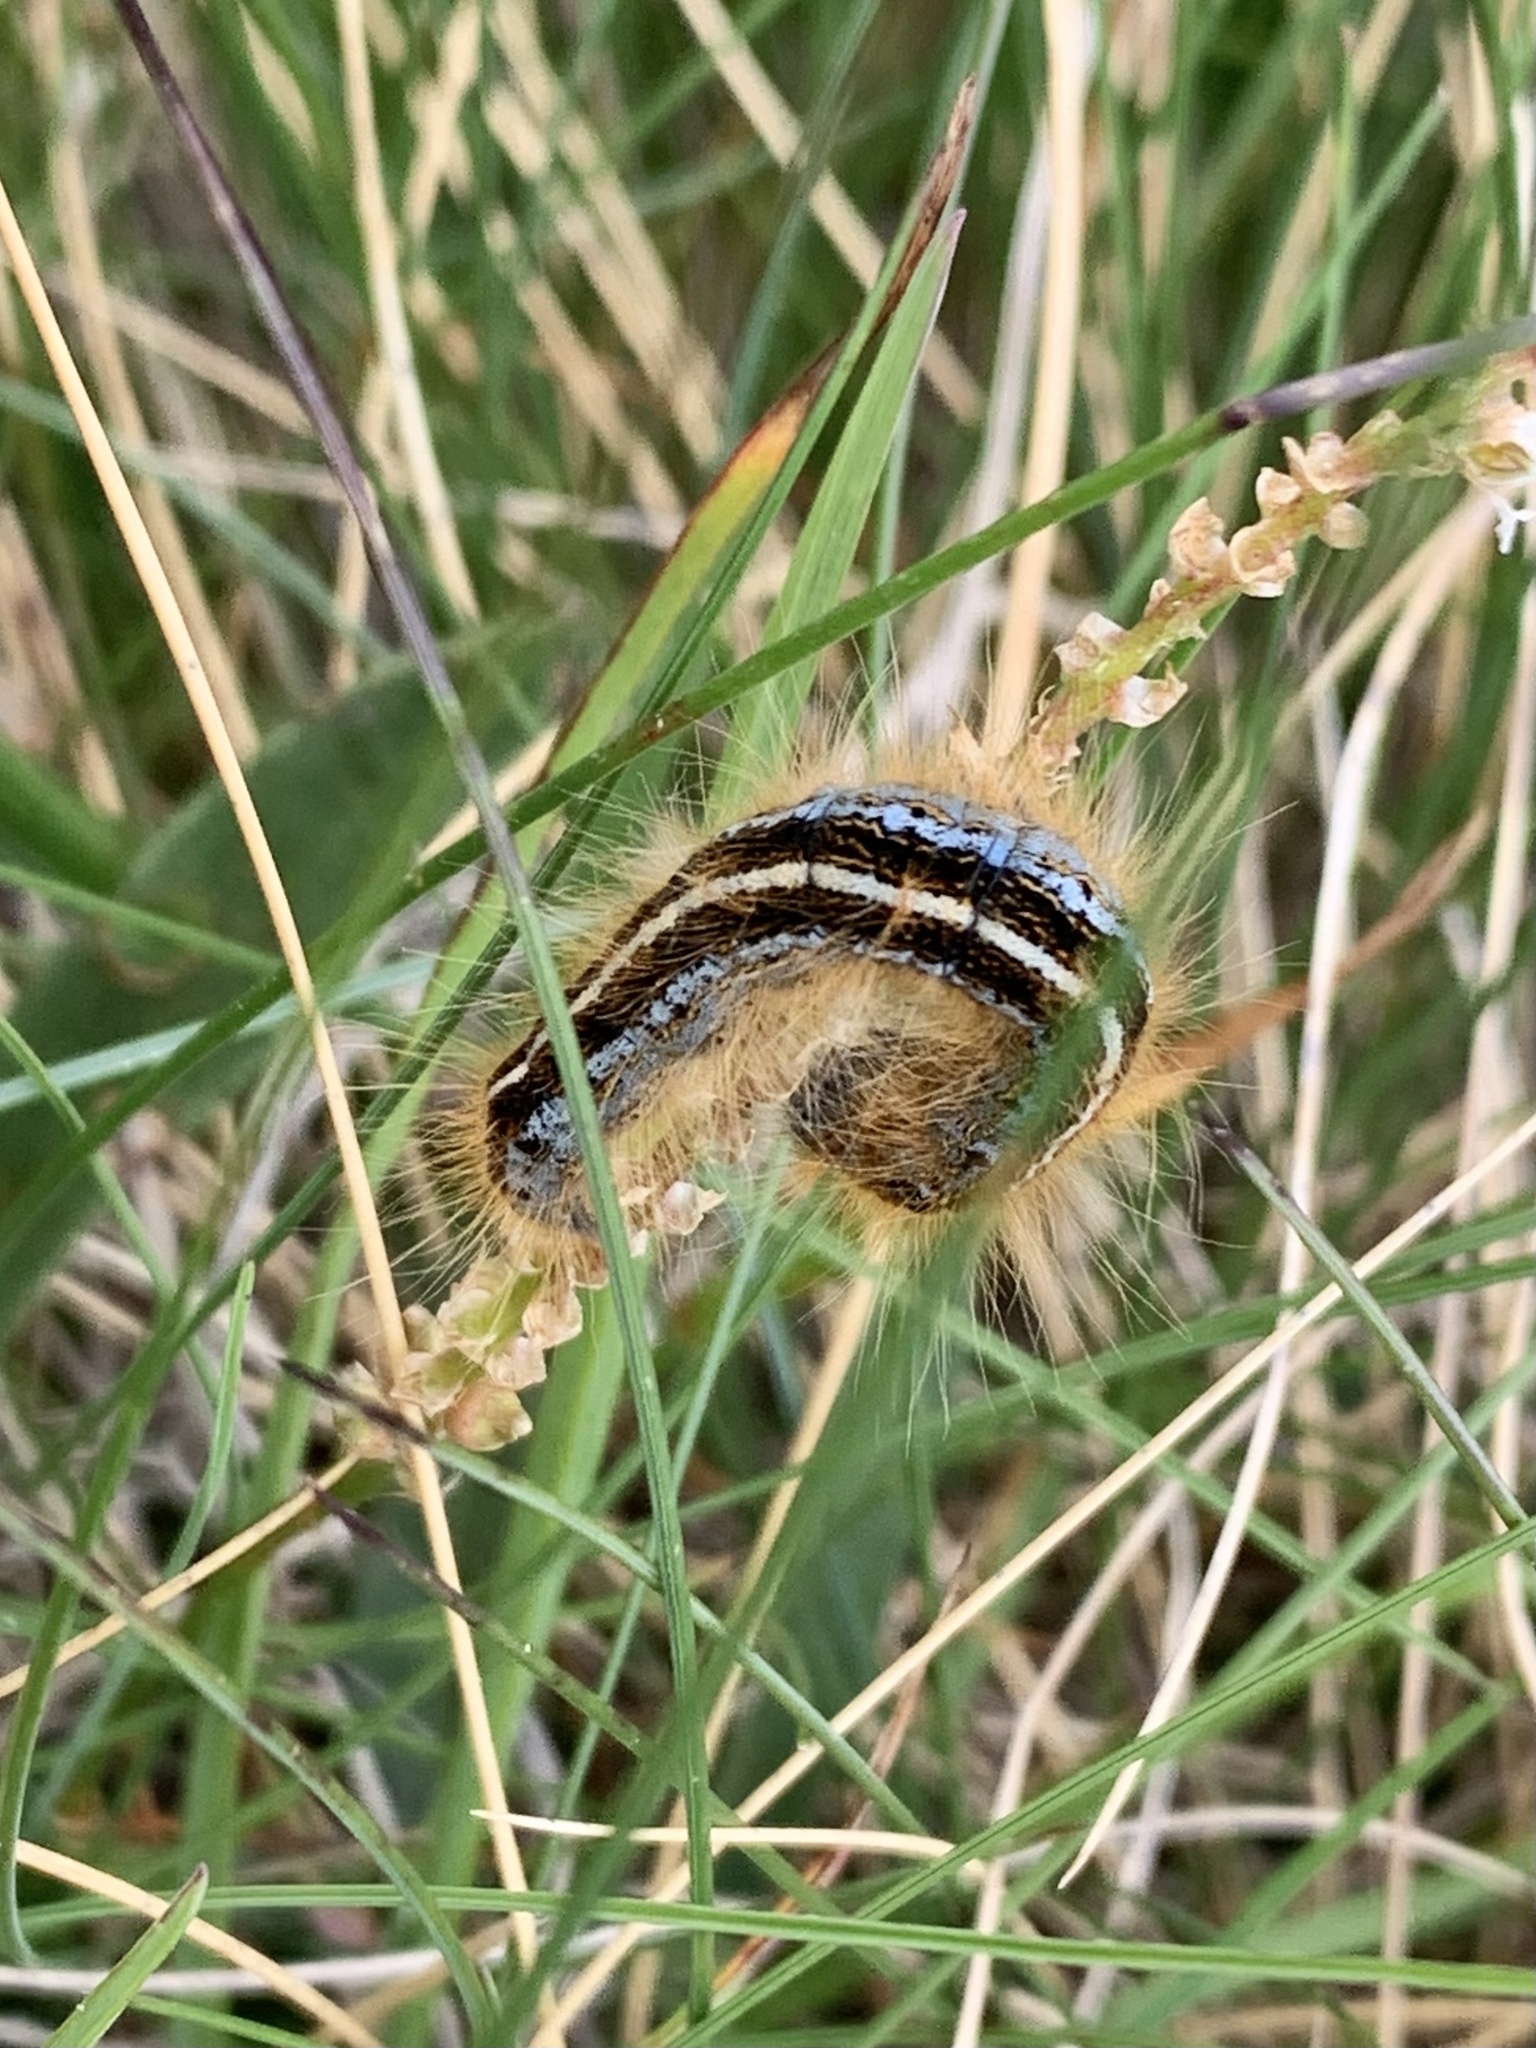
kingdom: Animalia
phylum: Arthropoda
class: Insecta
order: Lepidoptera
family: Lasiocampidae
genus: Malacosoma
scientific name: Malacosoma alpicola
